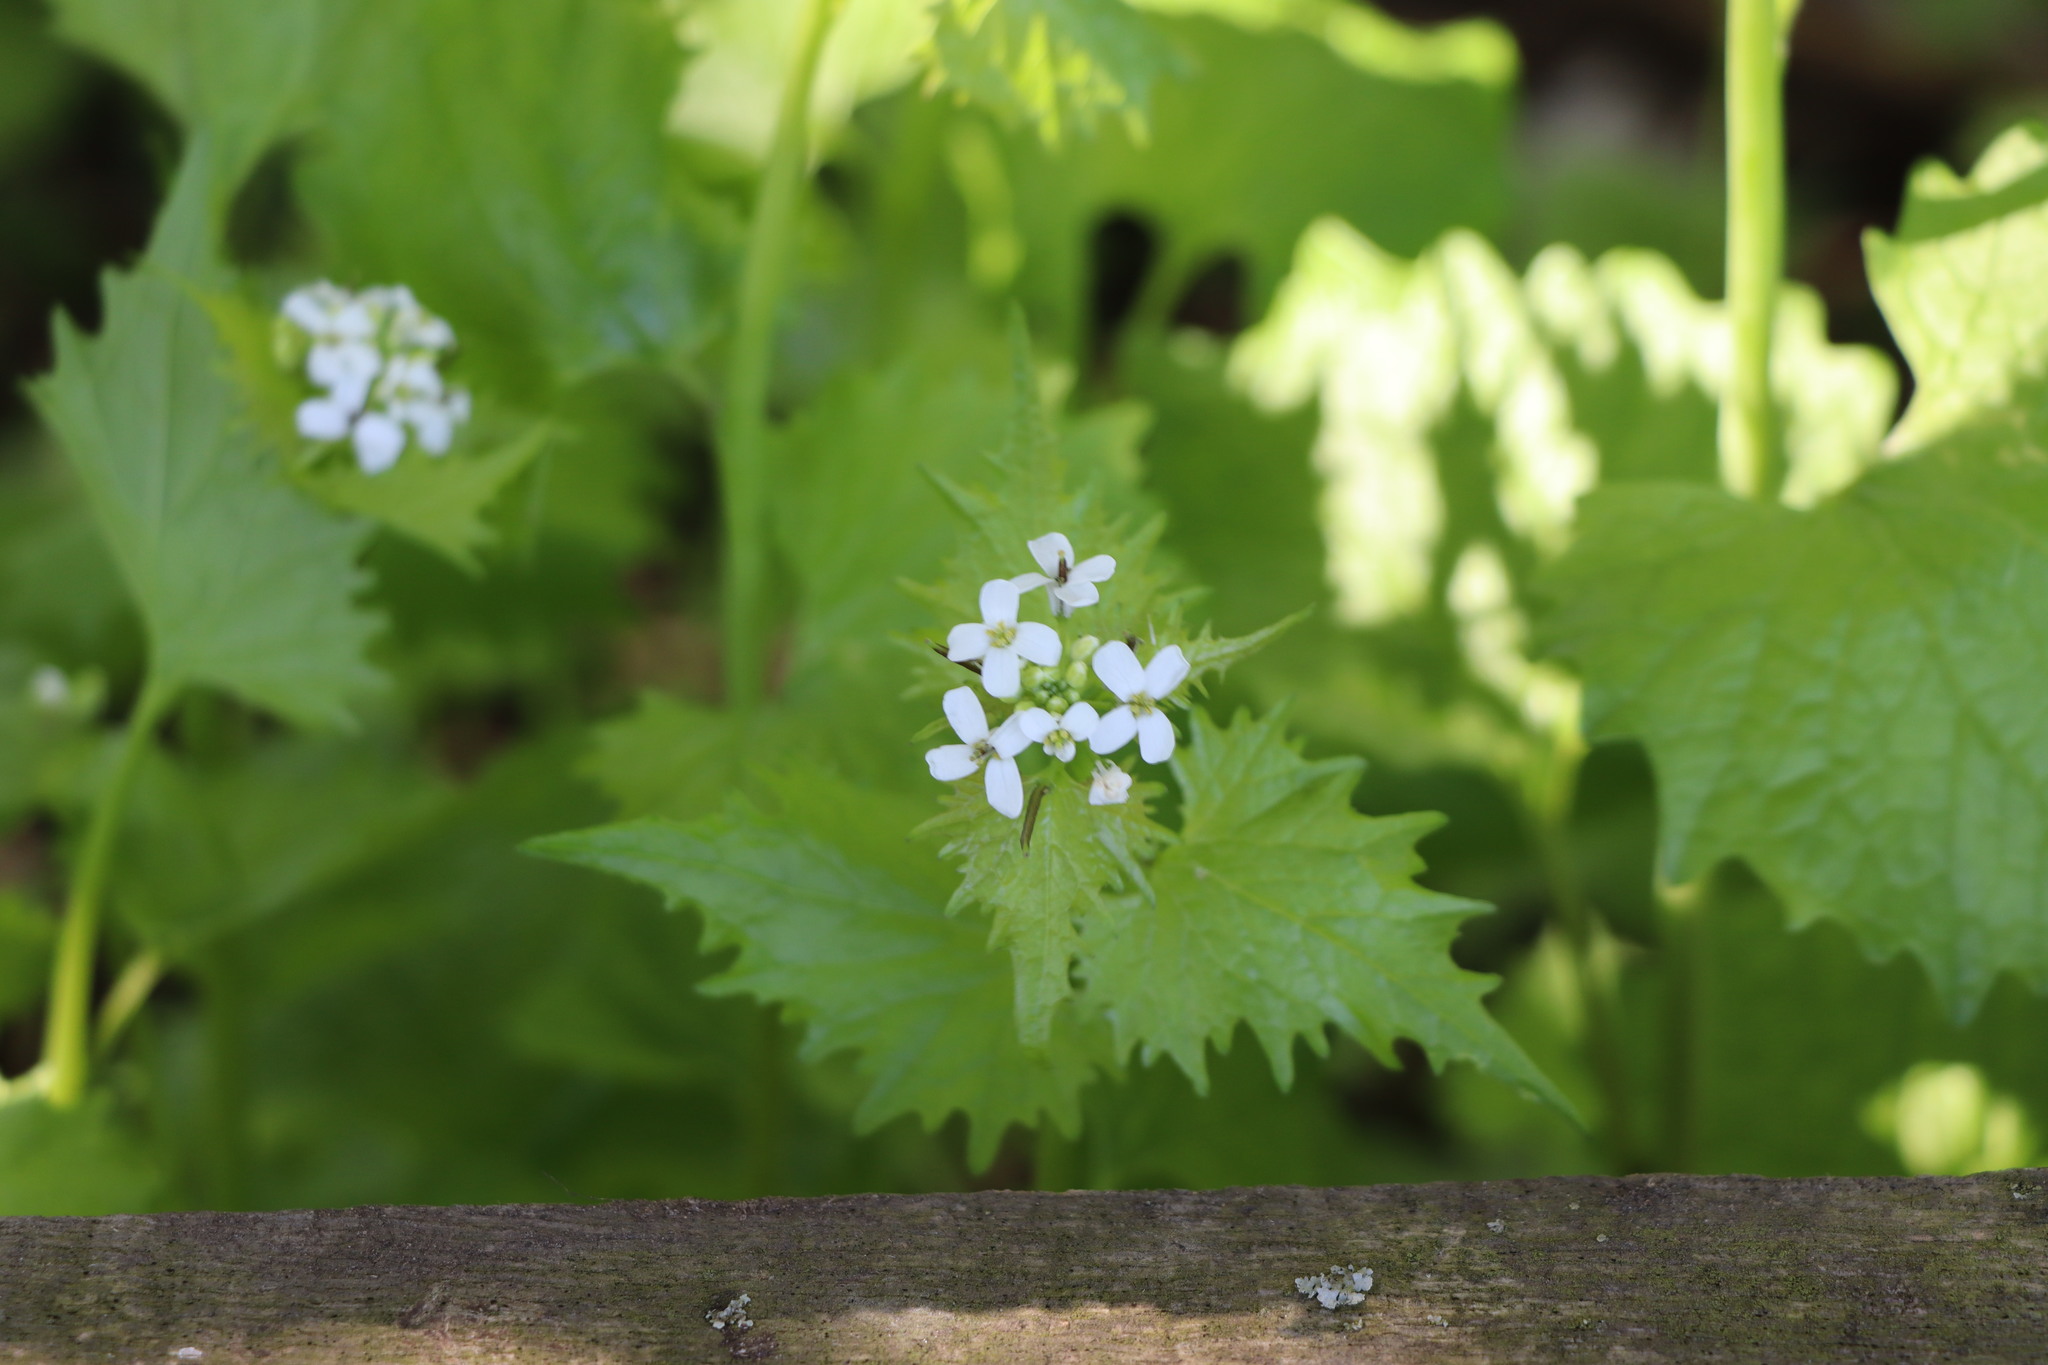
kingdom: Plantae
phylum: Tracheophyta
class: Magnoliopsida
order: Brassicales
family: Brassicaceae
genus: Alliaria
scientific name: Alliaria petiolata
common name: Garlic mustard
